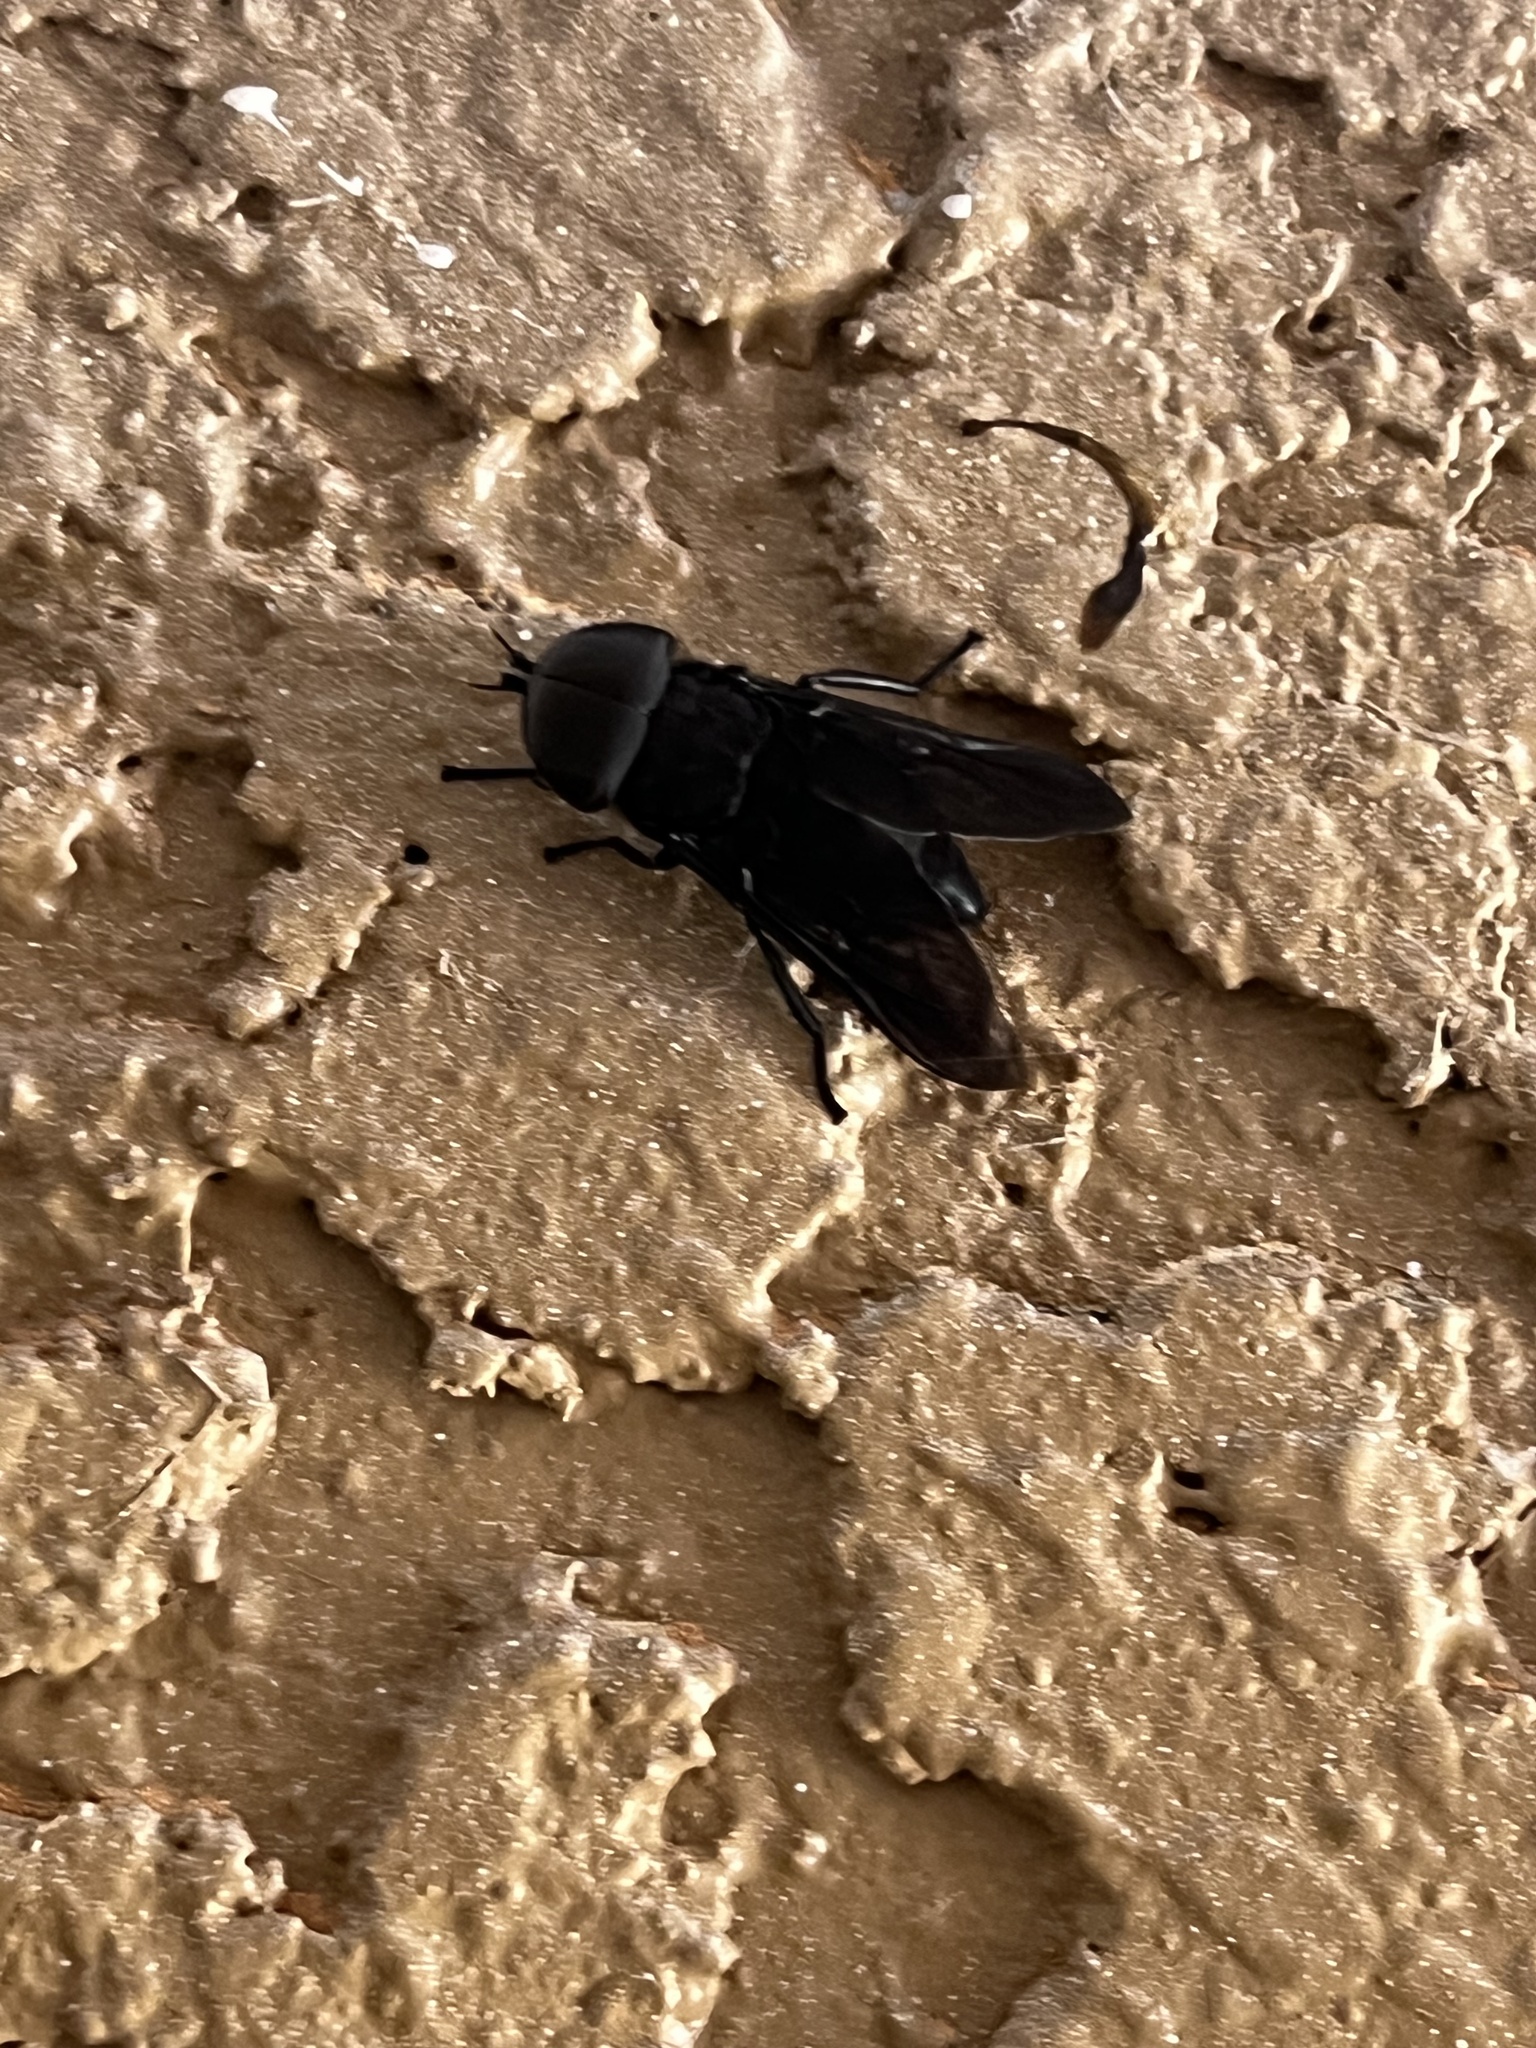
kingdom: Animalia
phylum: Arthropoda
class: Insecta
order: Diptera
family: Tabanidae
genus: Tabanus
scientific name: Tabanus atratus
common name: Black horse fly
